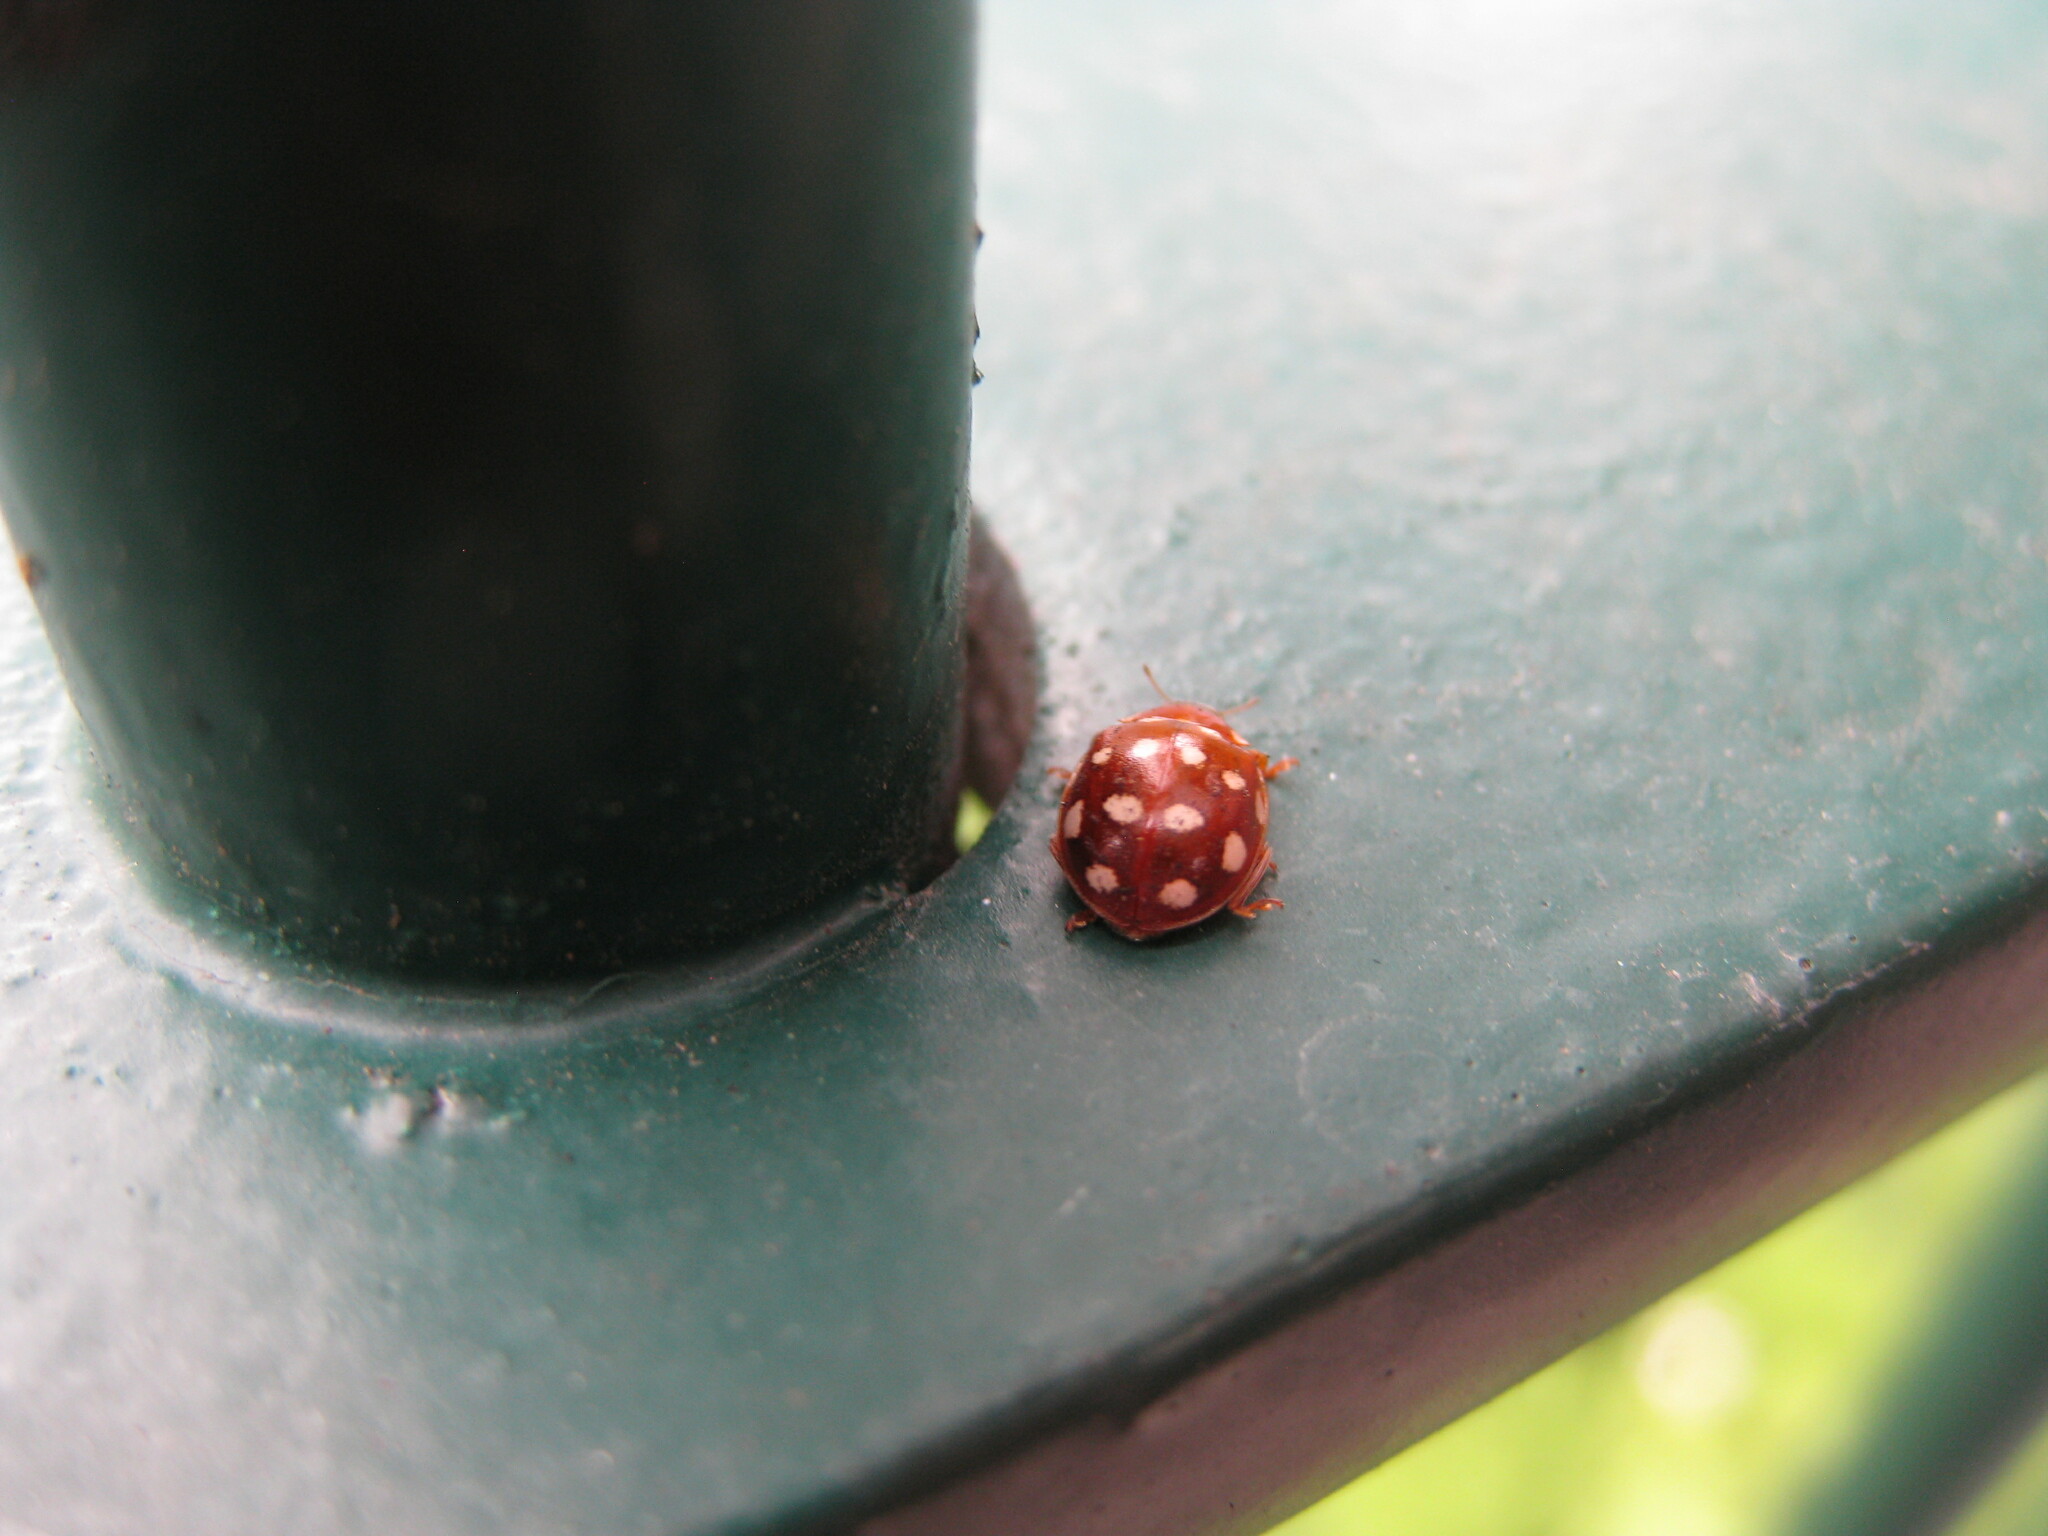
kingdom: Animalia
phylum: Arthropoda
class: Insecta
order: Coleoptera
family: Coccinellidae
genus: Calvia
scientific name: Calvia quatuordecimguttata
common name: Cream-spot ladybird
